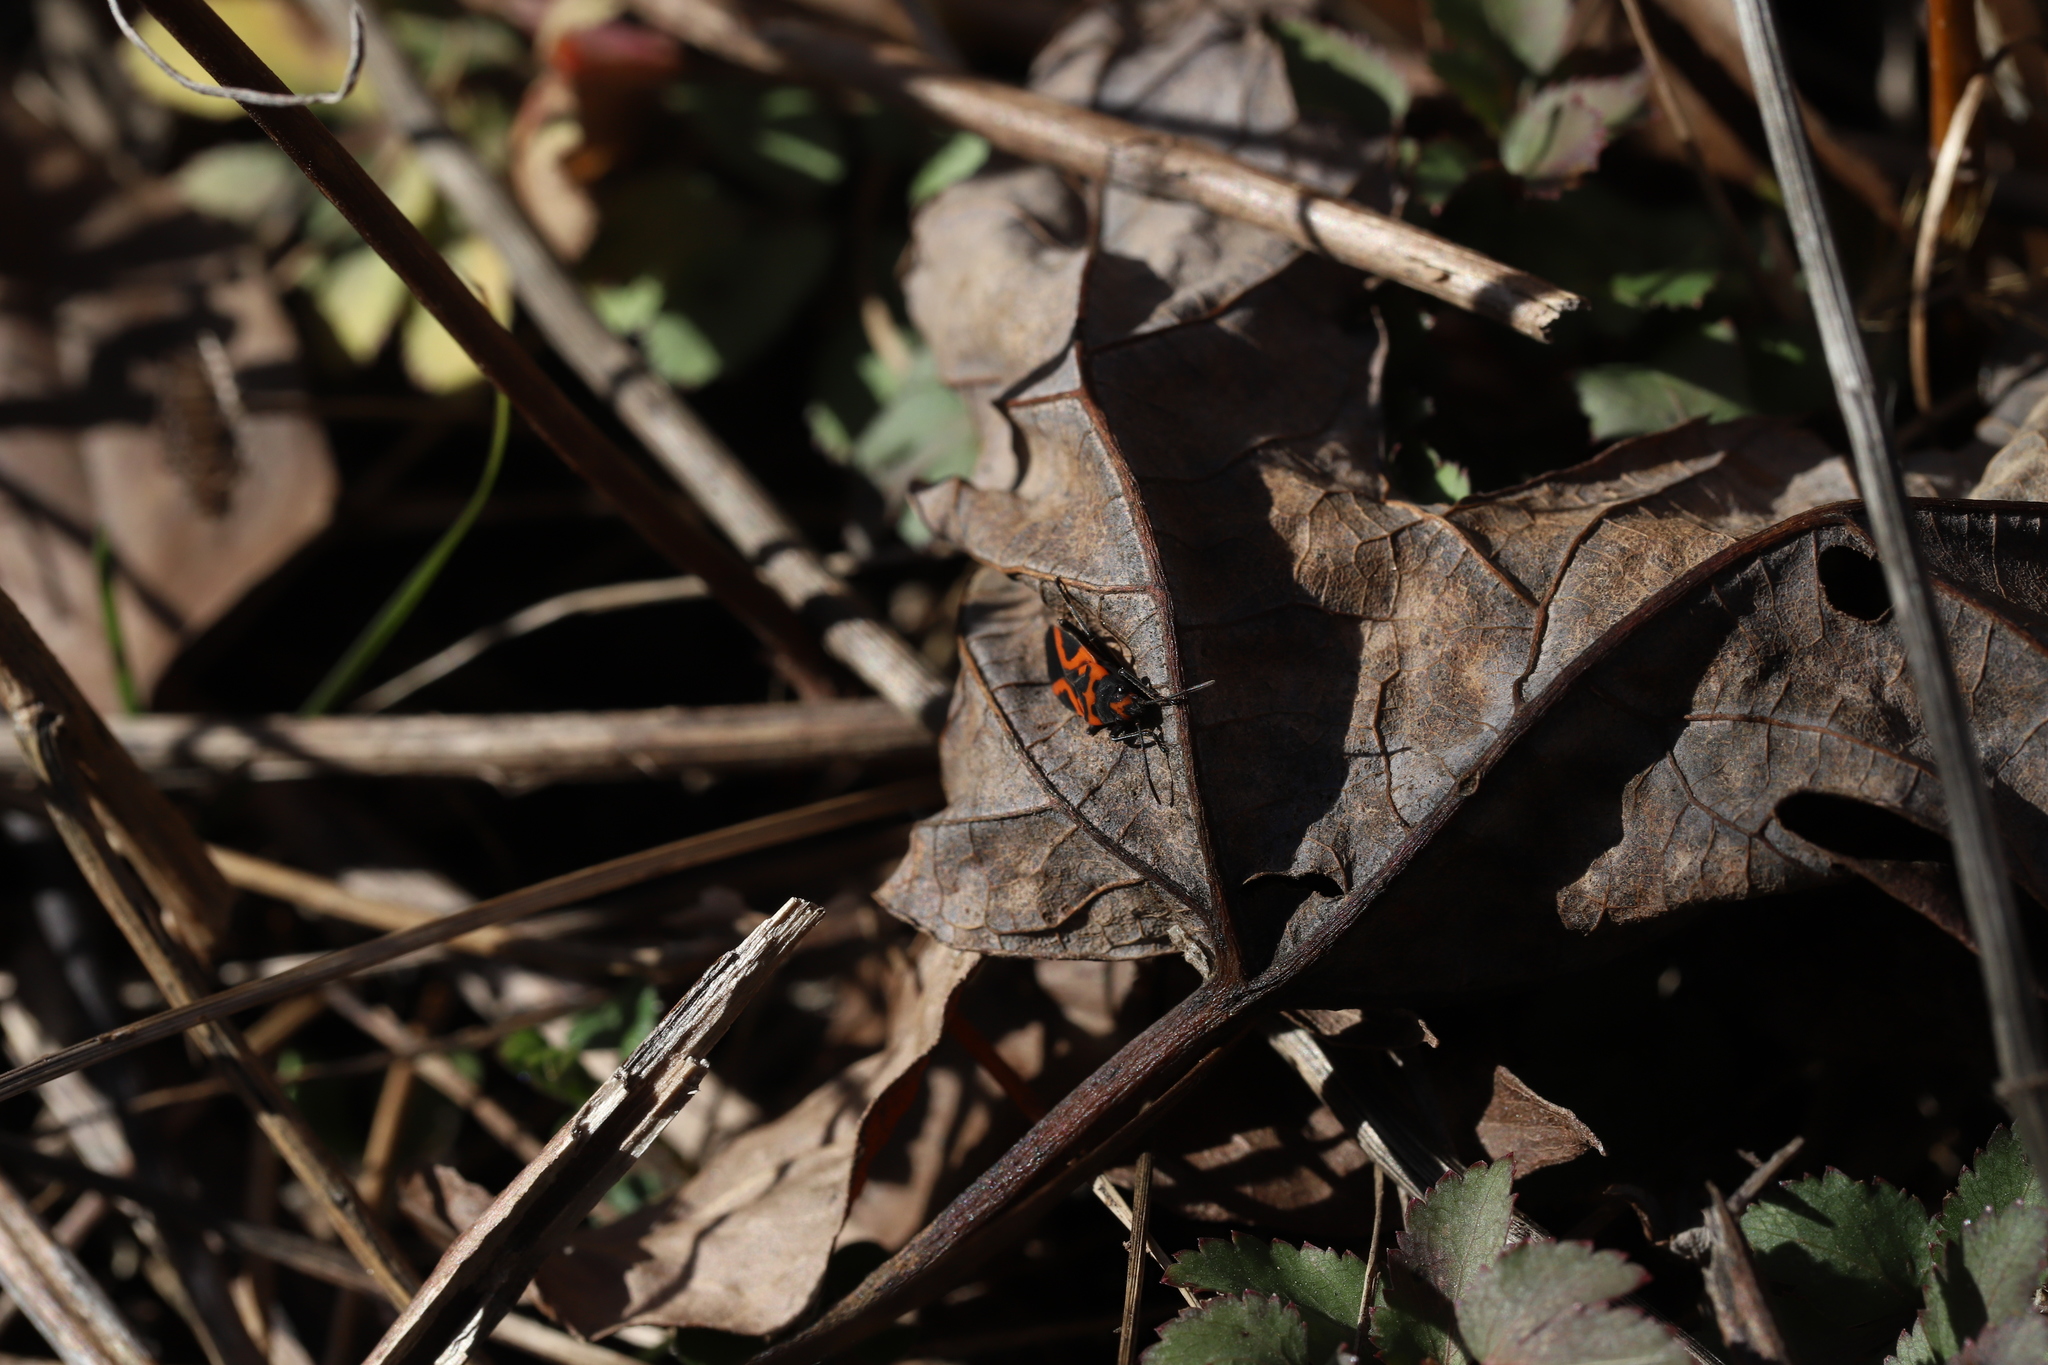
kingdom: Animalia
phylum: Arthropoda
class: Insecta
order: Hemiptera
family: Lygaeidae
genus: Lygaeus
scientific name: Lygaeus turcicus
